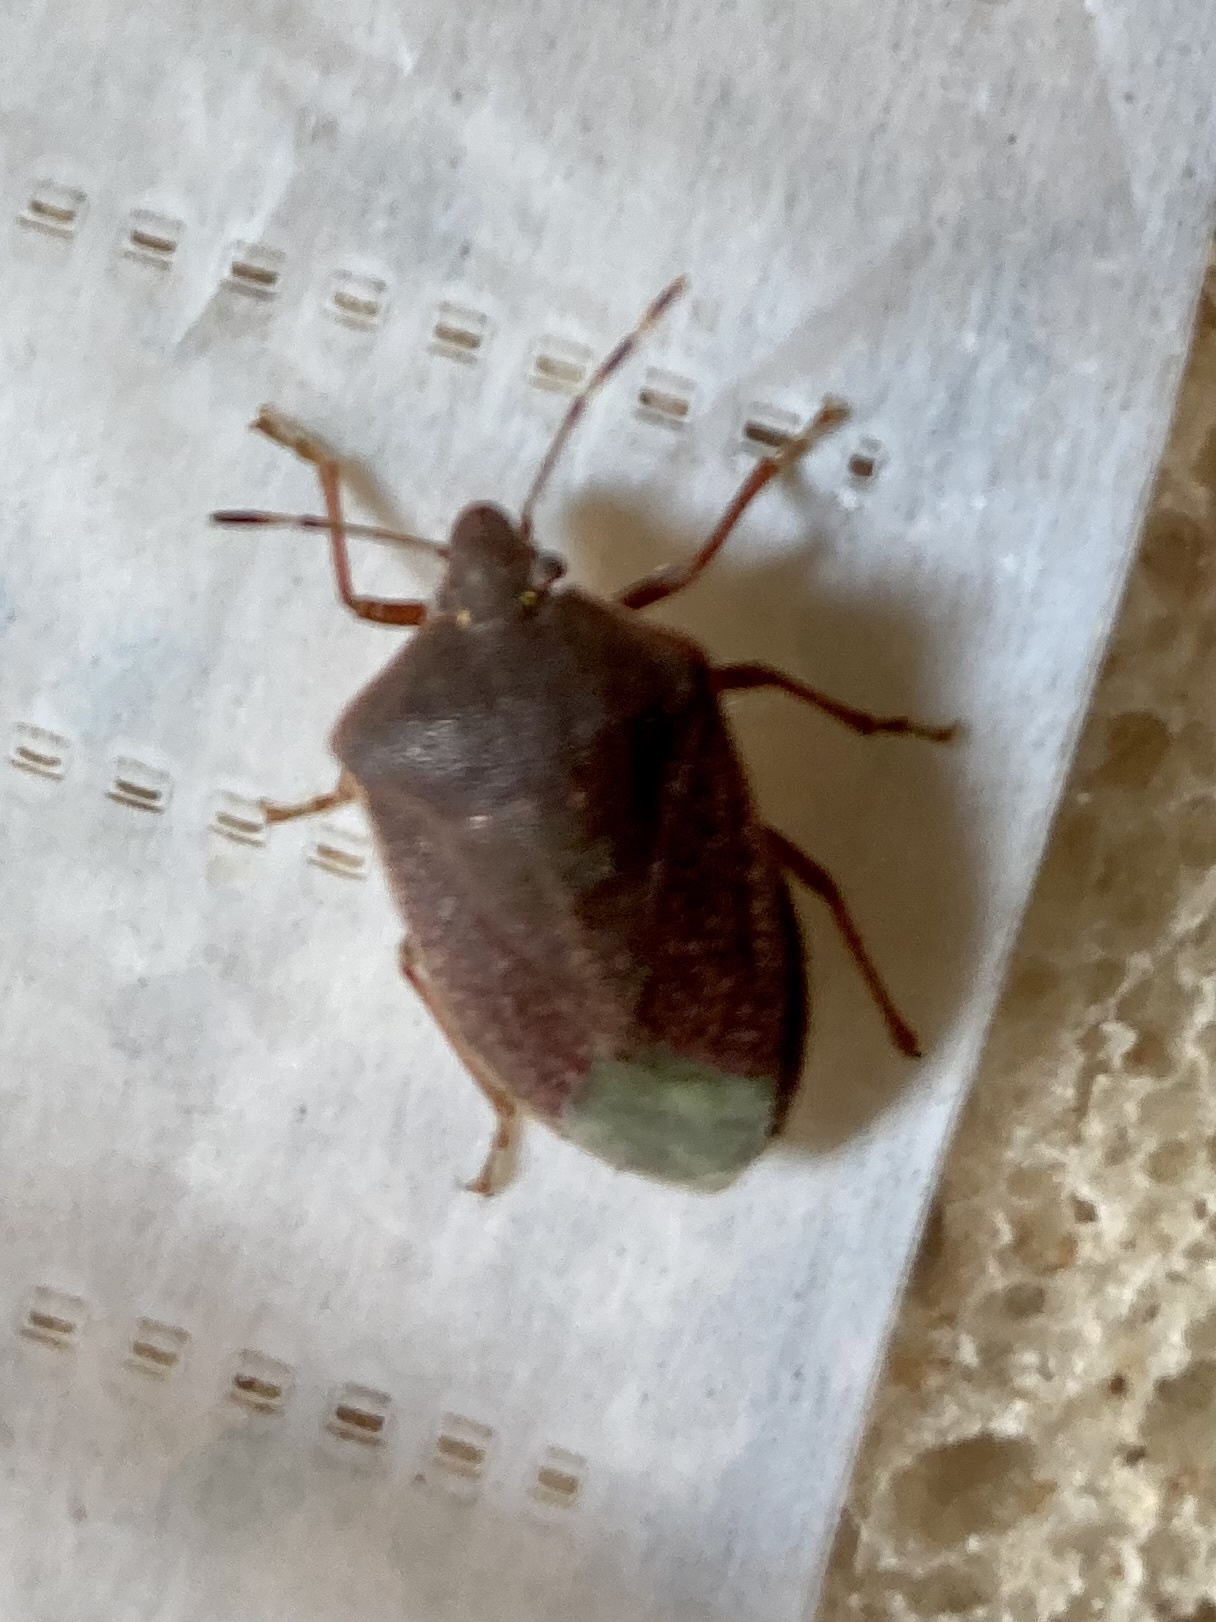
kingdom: Animalia
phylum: Arthropoda
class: Insecta
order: Hemiptera
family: Pentatomidae
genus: Nezara
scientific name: Nezara viridula
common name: Southern green stink bug
